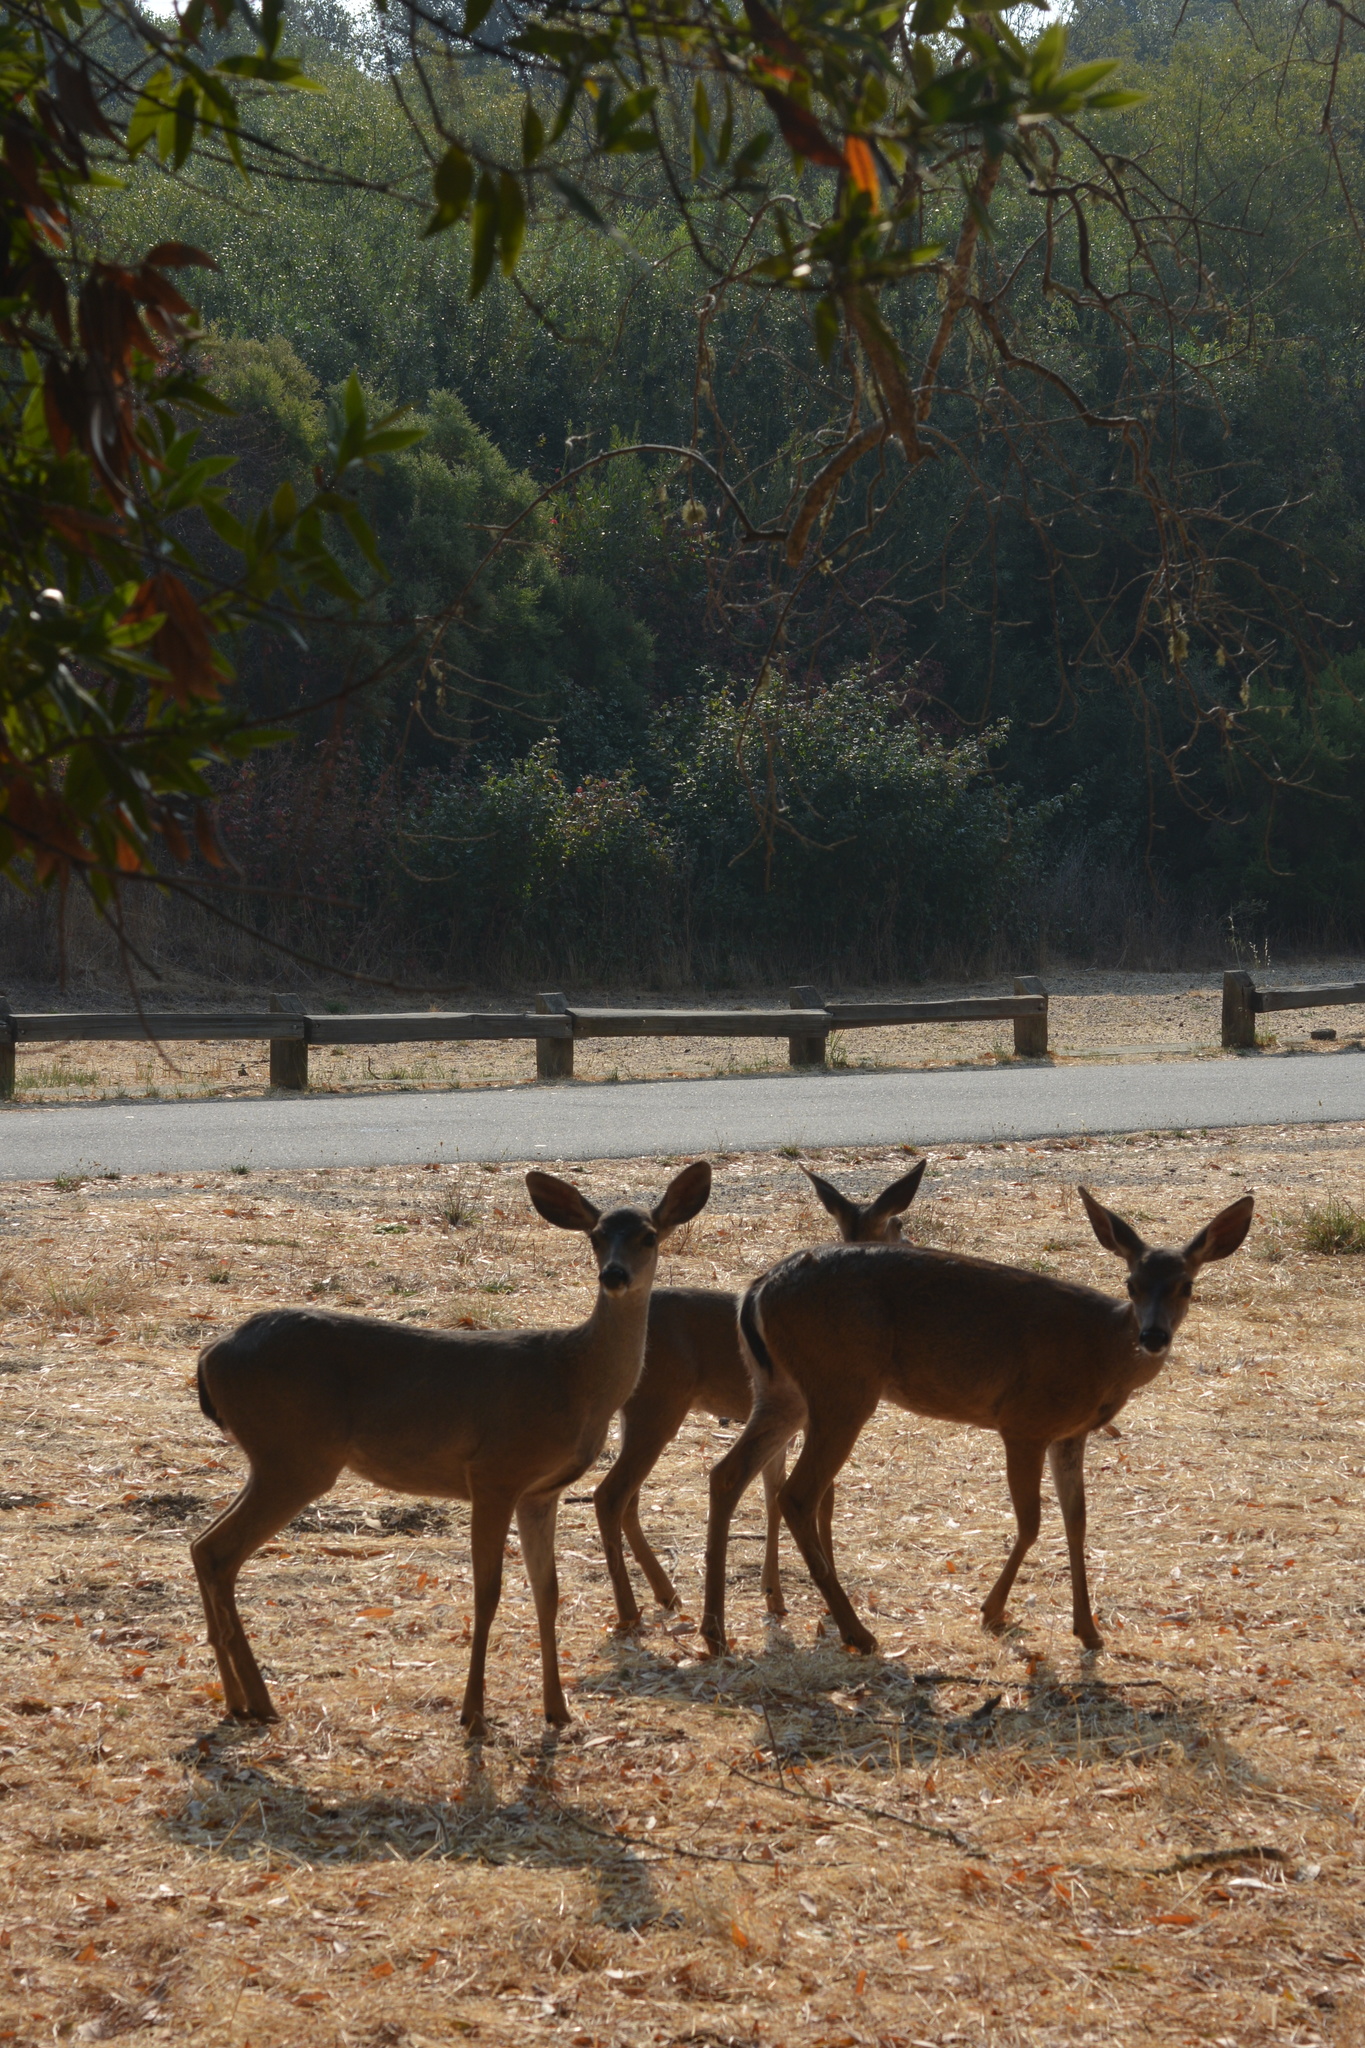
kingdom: Animalia
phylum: Chordata
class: Mammalia
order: Artiodactyla
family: Cervidae
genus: Odocoileus
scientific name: Odocoileus hemionus
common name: Mule deer
